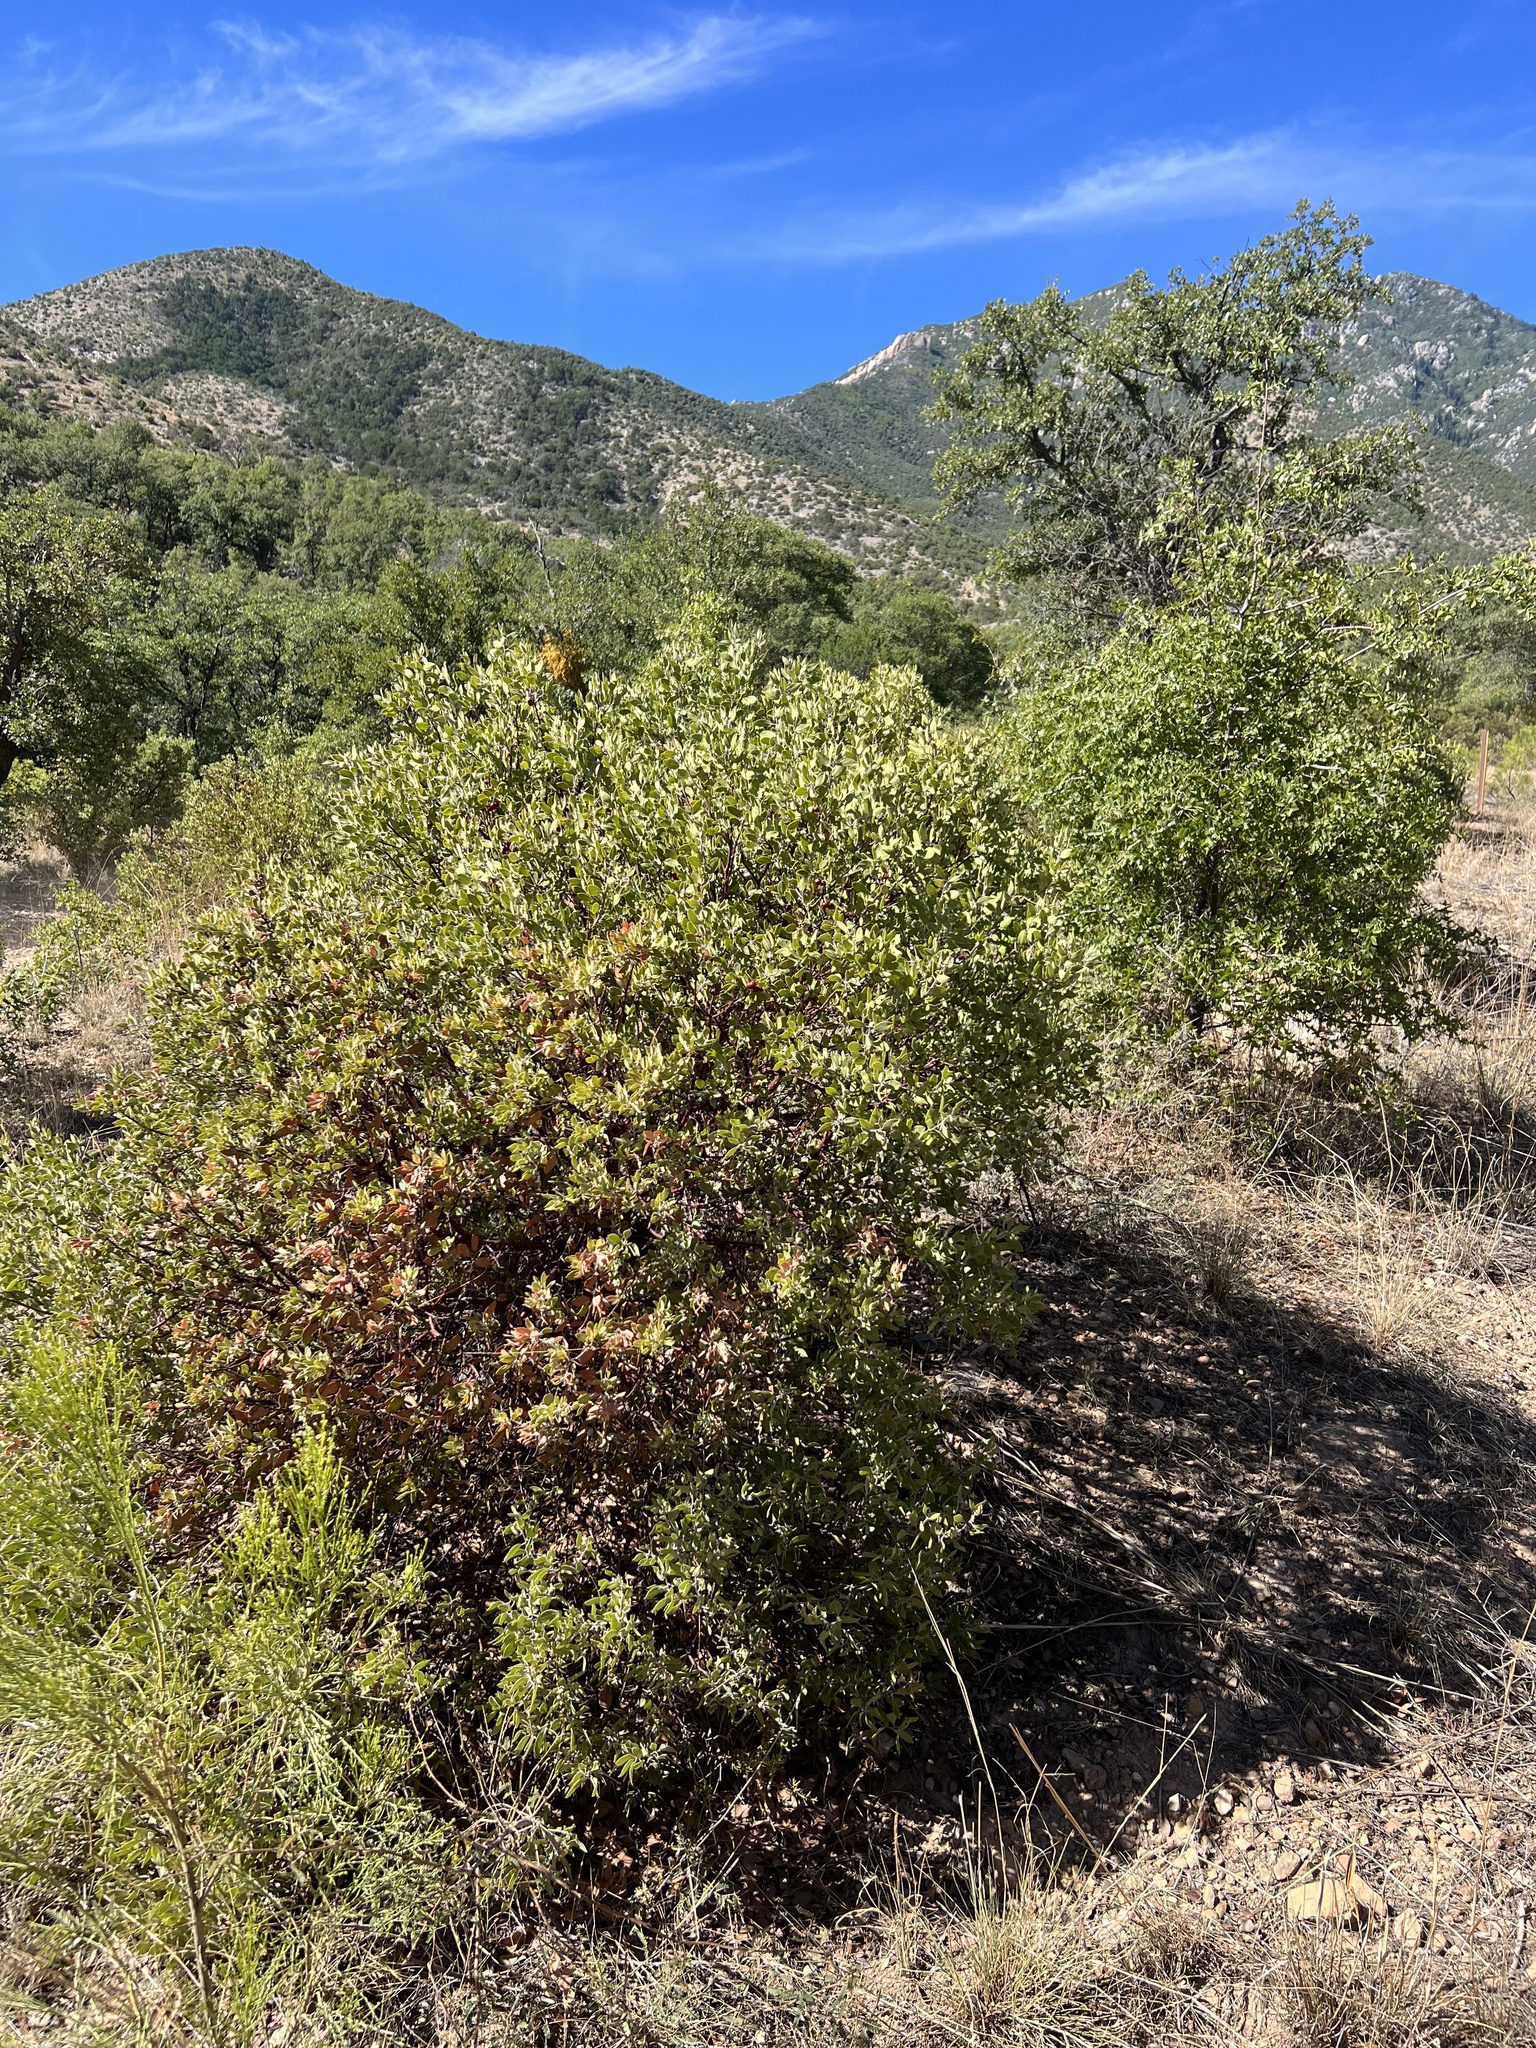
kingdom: Plantae
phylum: Tracheophyta
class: Magnoliopsida
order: Ericales
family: Ericaceae
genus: Arctostaphylos
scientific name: Arctostaphylos pungens
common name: Mexican manzanita
